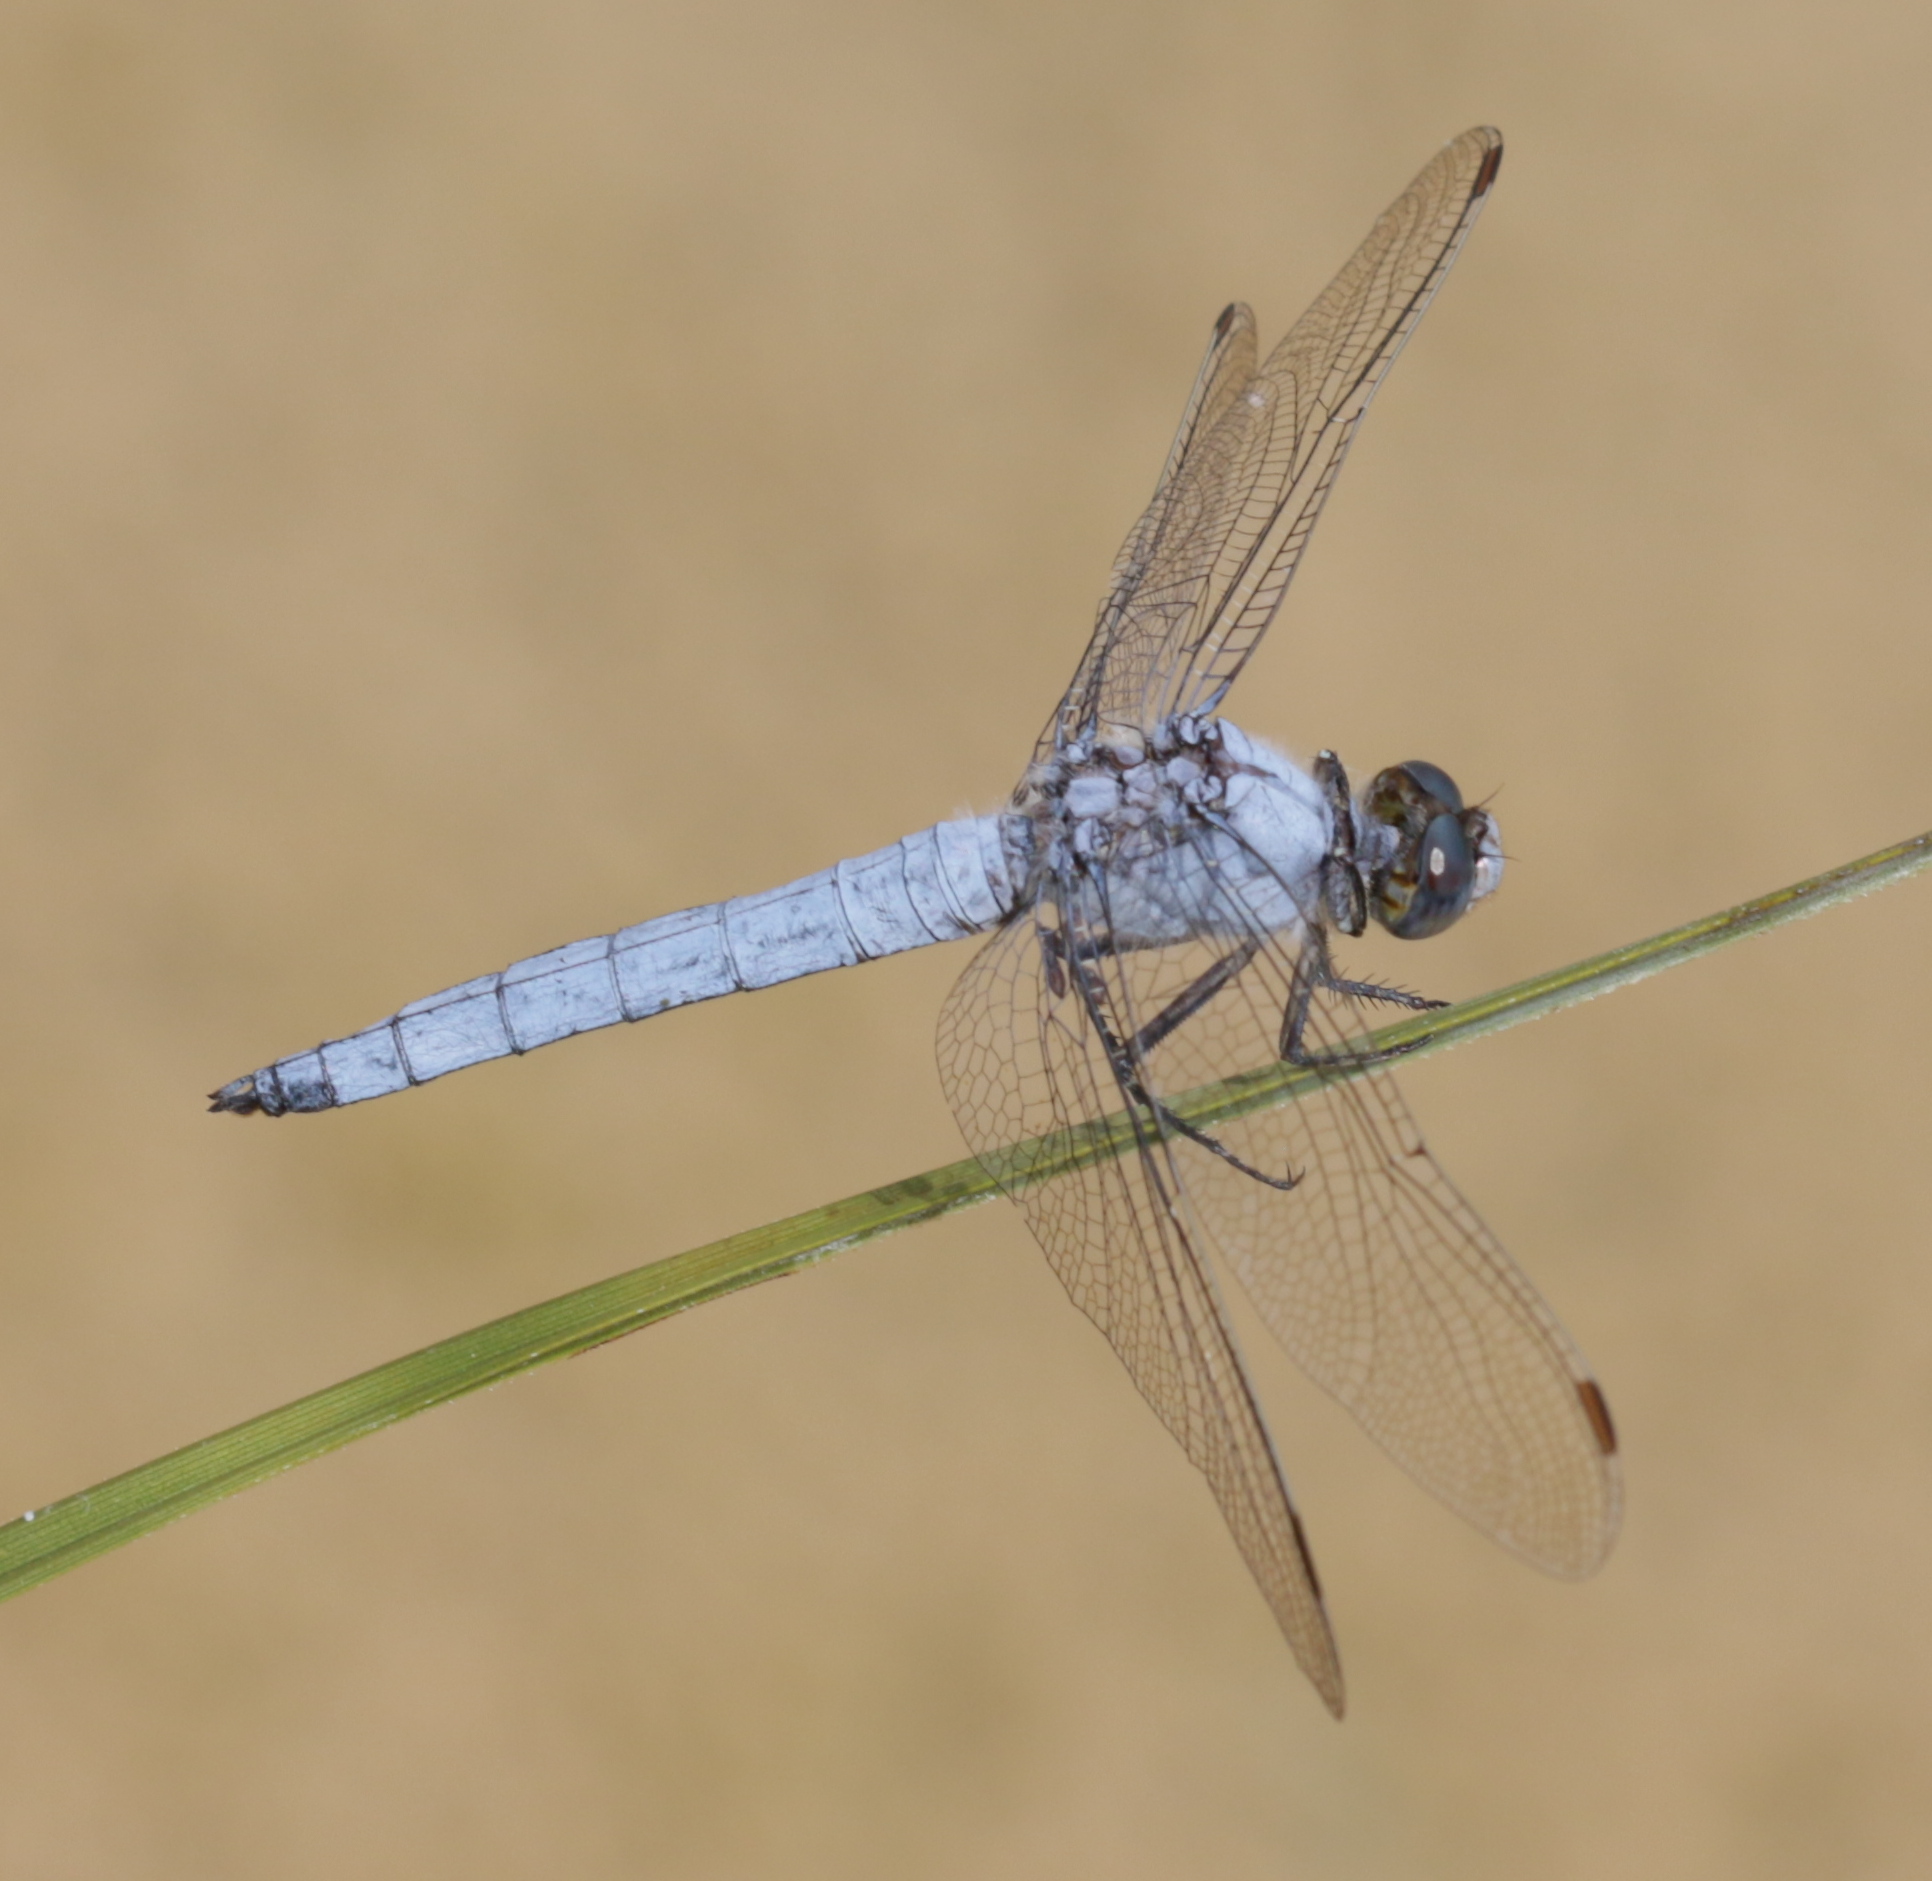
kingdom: Animalia
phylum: Arthropoda
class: Insecta
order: Odonata
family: Libellulidae
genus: Orthetrum
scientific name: Orthetrum brunneum
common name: Southern skimmer
